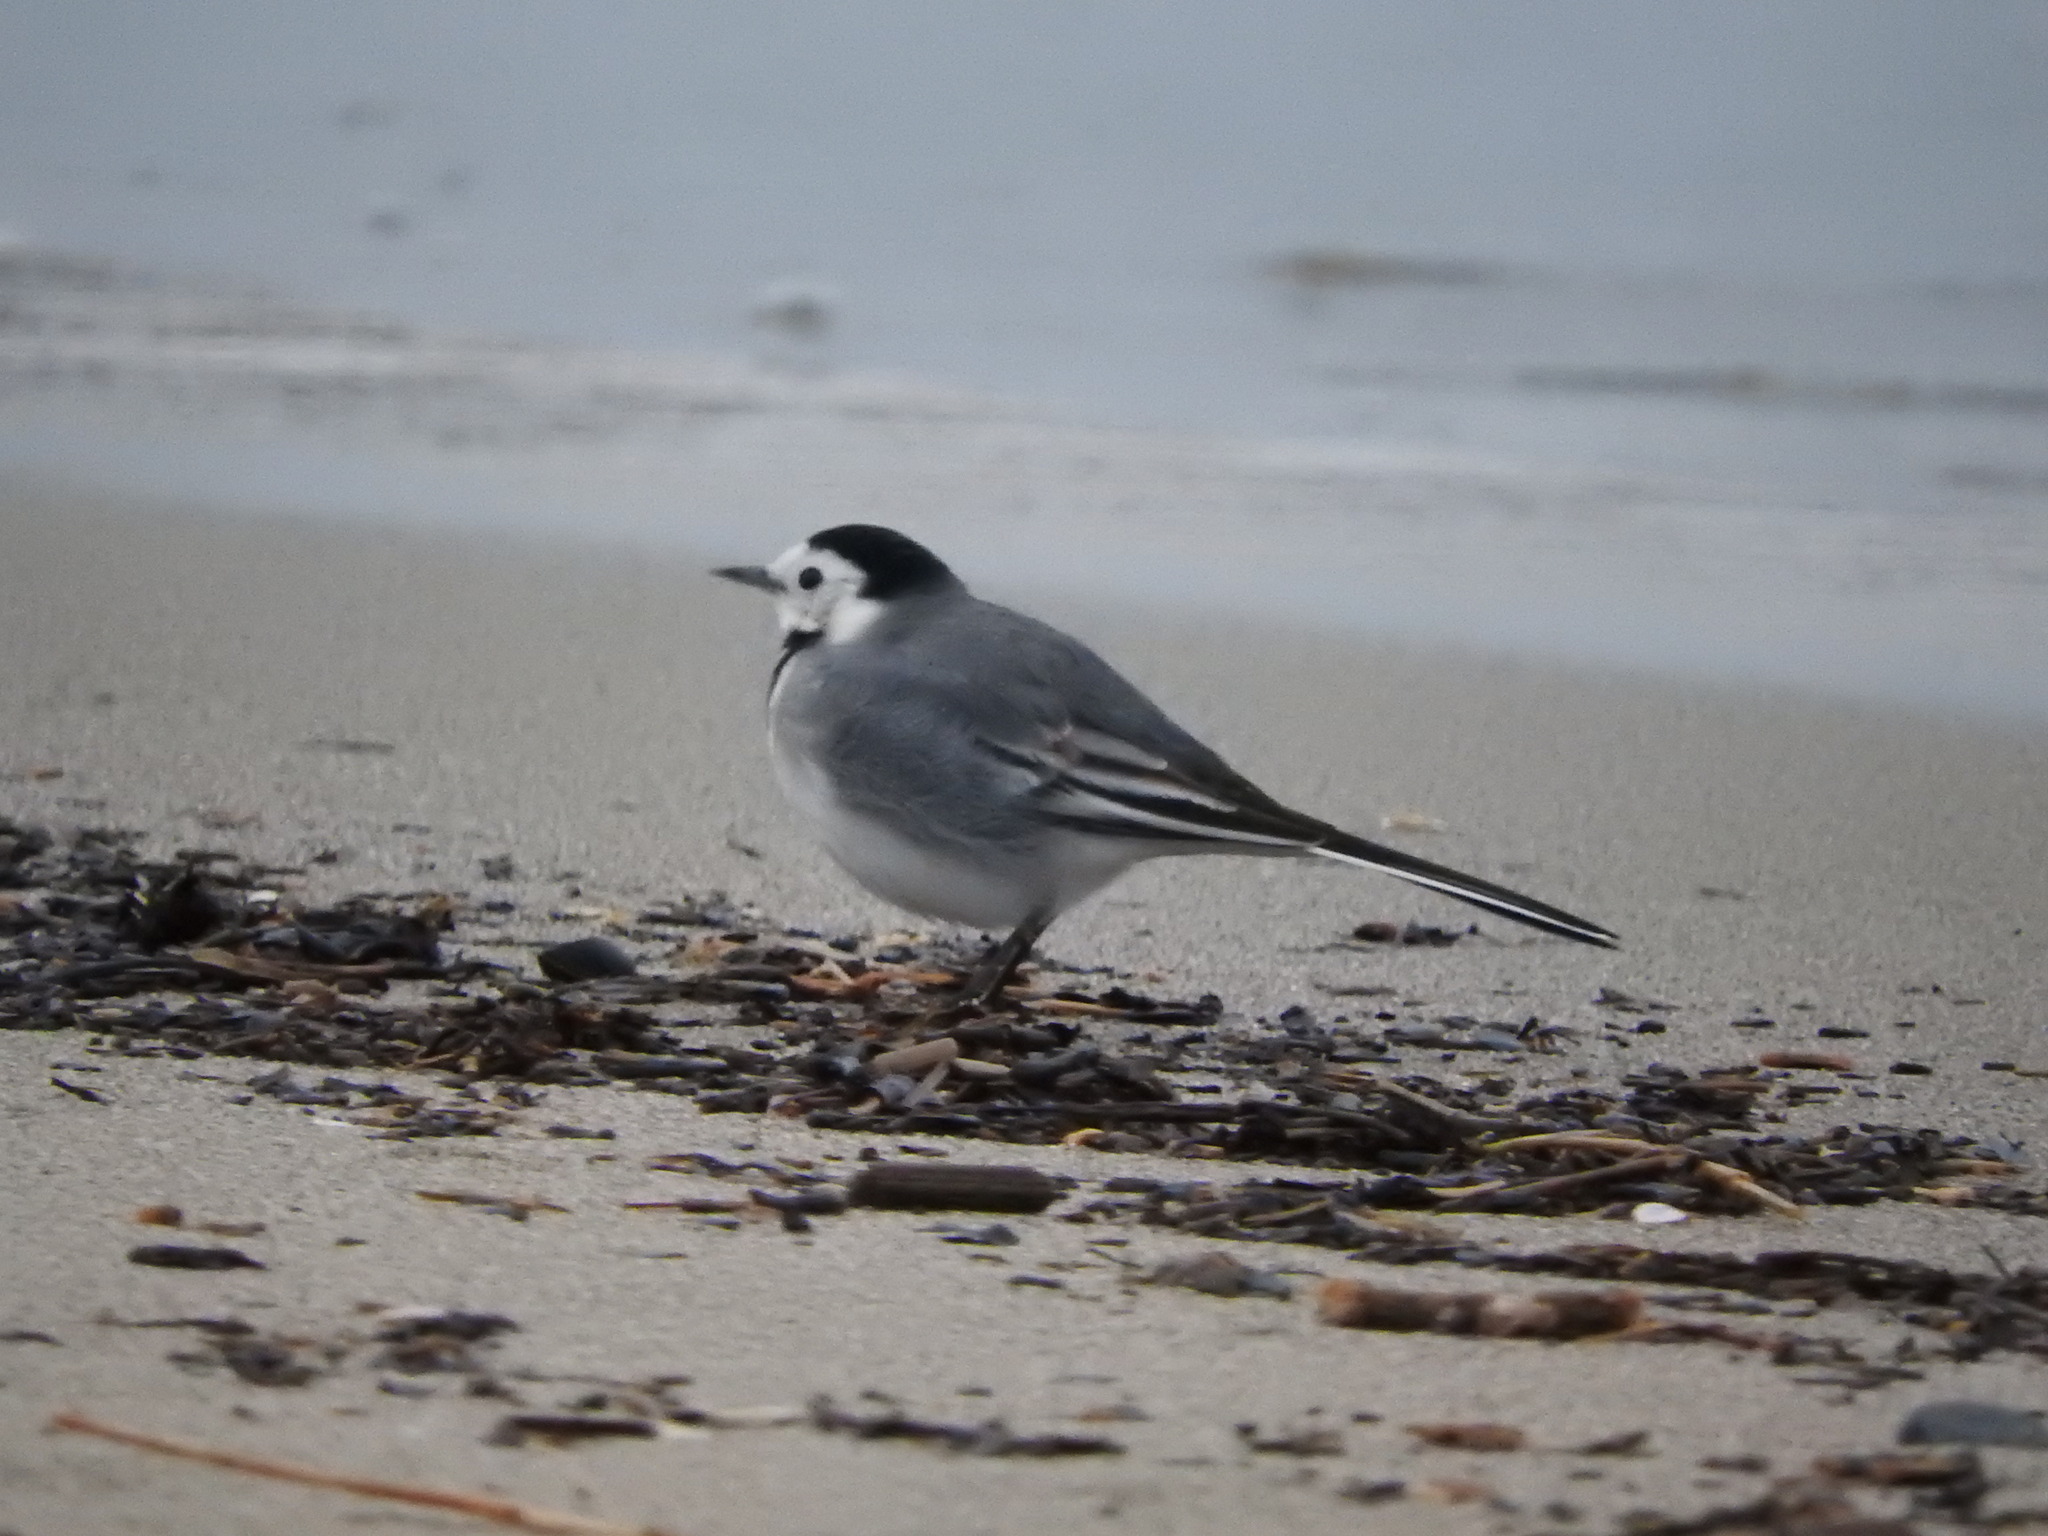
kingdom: Animalia
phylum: Chordata
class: Aves
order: Passeriformes
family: Motacillidae
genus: Motacilla
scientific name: Motacilla alba
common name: White wagtail
